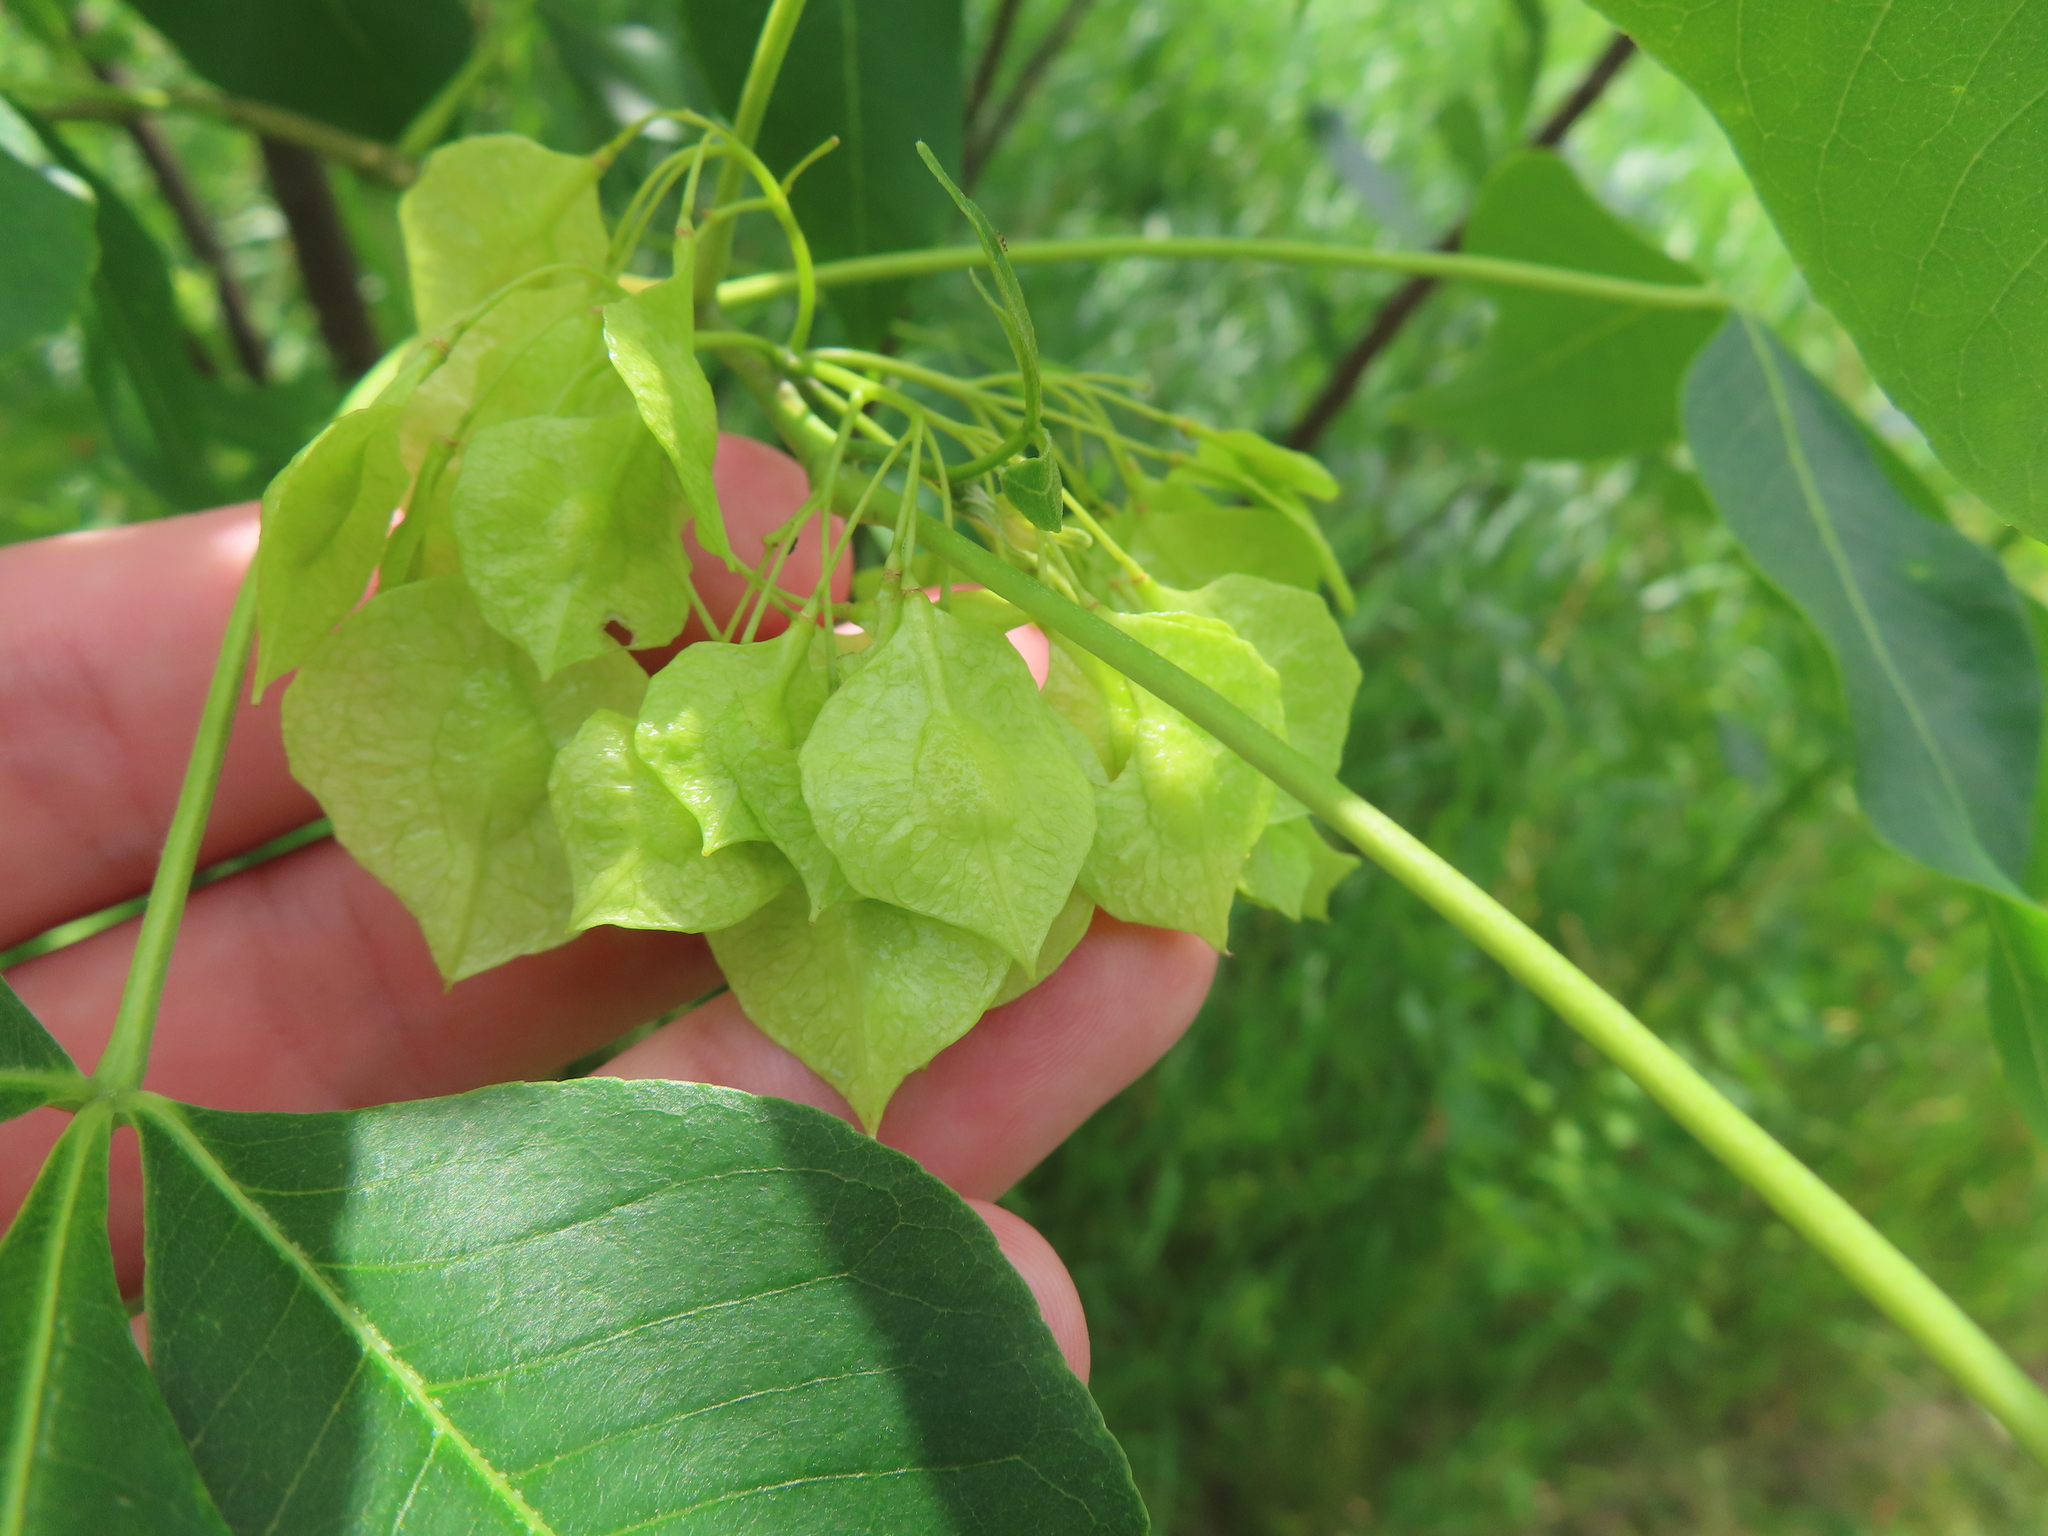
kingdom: Plantae
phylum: Tracheophyta
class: Magnoliopsida
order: Sapindales
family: Rutaceae
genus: Ptelea
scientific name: Ptelea trifoliata
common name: Common hop-tree
